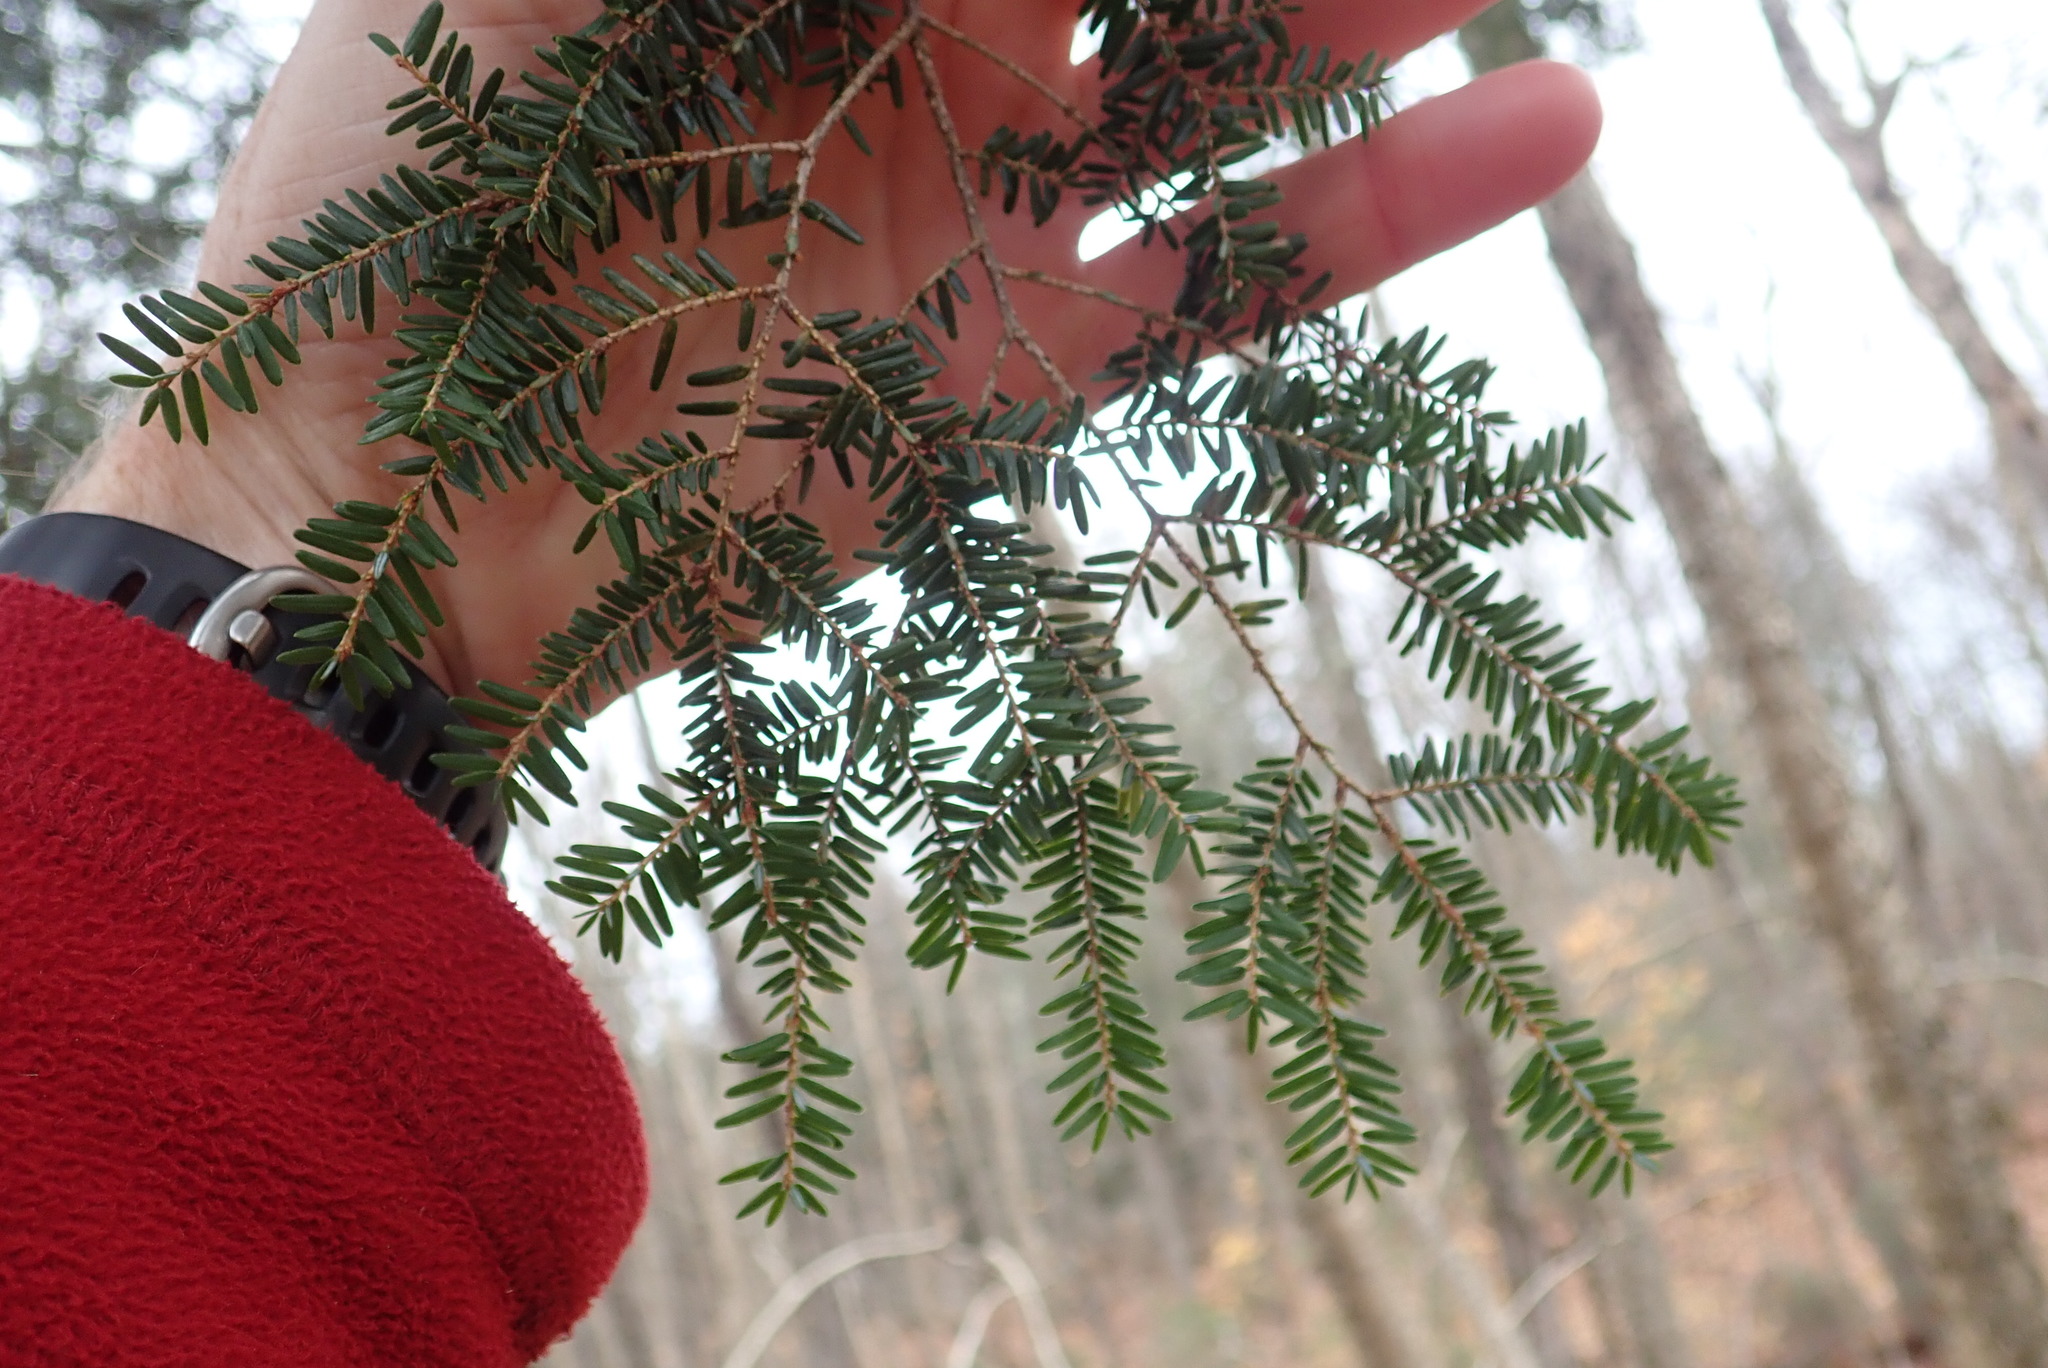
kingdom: Plantae
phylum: Tracheophyta
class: Pinopsida
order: Pinales
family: Pinaceae
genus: Tsuga
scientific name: Tsuga canadensis
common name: Eastern hemlock
